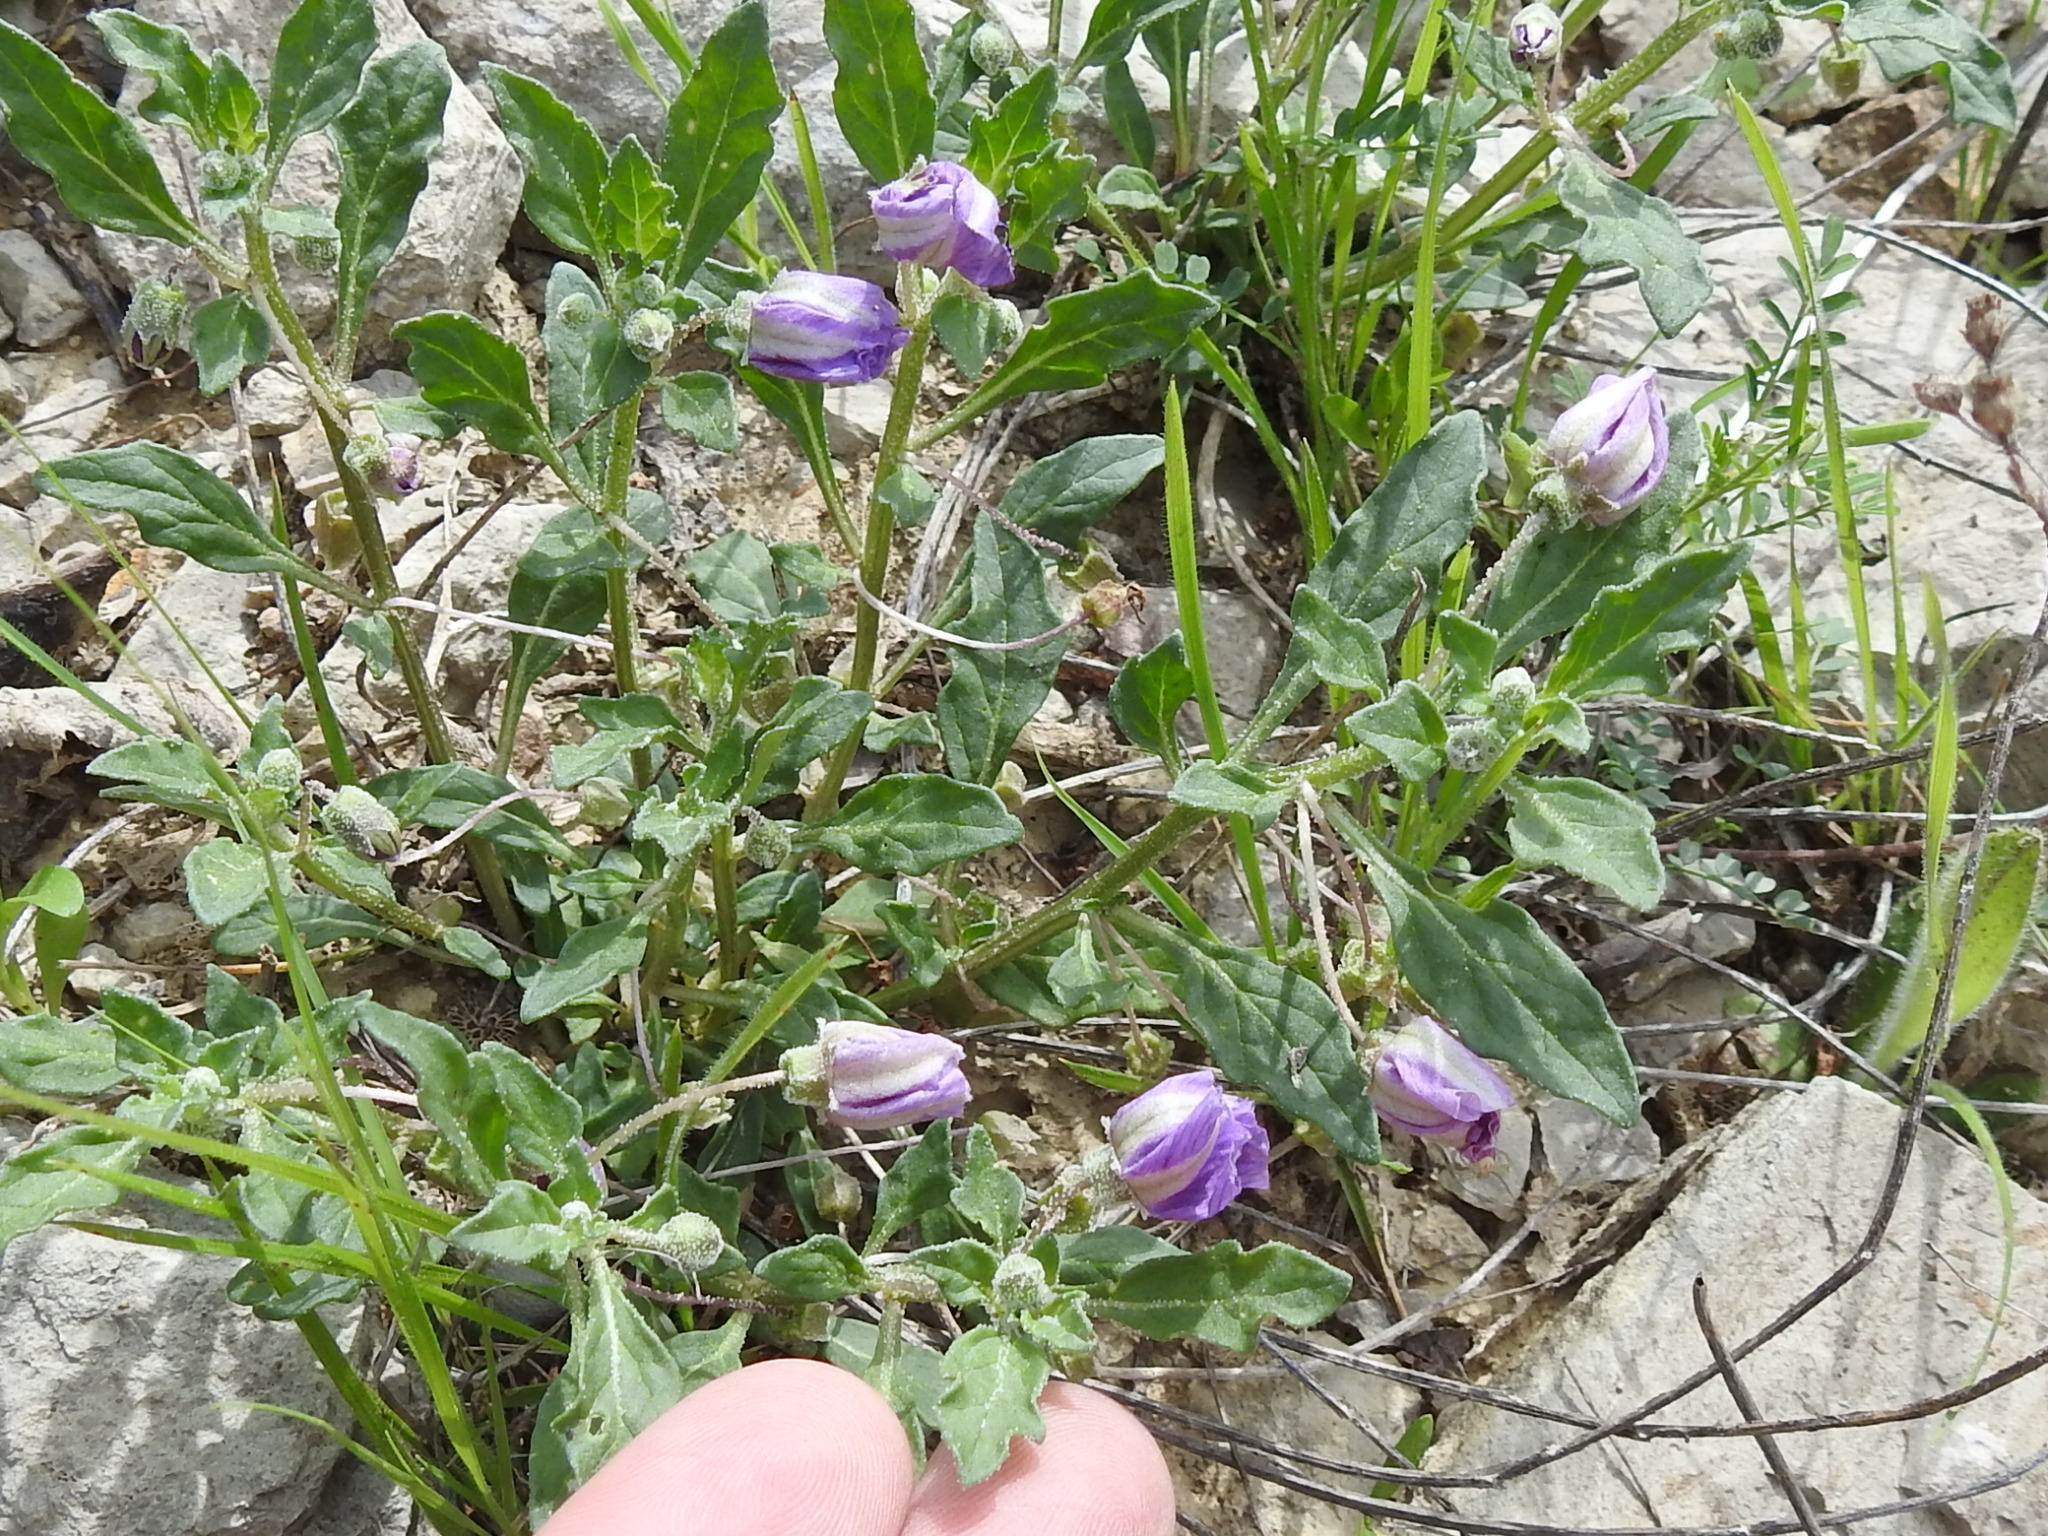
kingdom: Plantae
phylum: Tracheophyta
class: Magnoliopsida
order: Solanales
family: Solanaceae
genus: Quincula
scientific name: Quincula lobata
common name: Purple-ground-cherry
